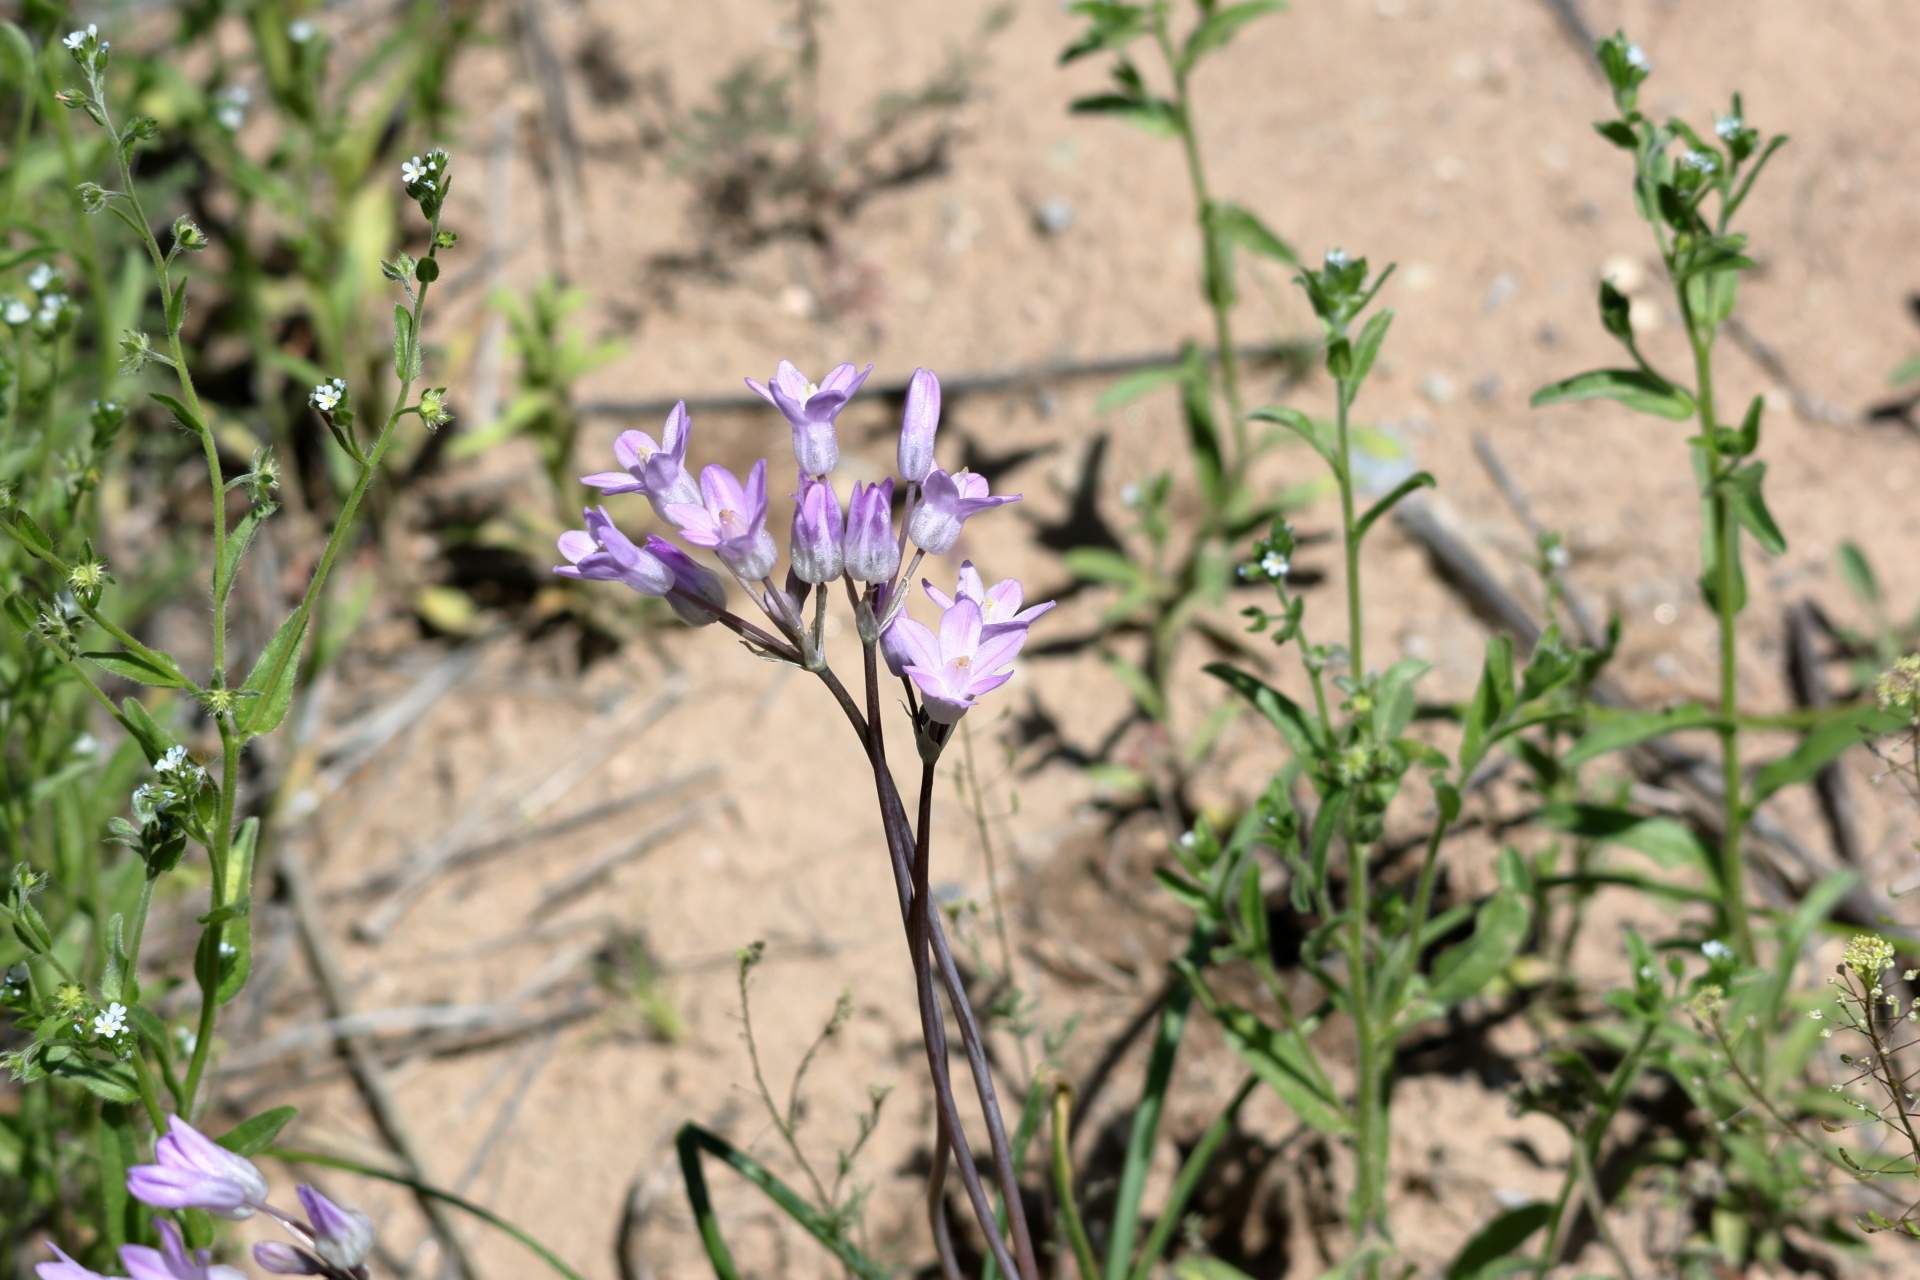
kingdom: Plantae
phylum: Tracheophyta
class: Liliopsida
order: Asparagales
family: Asparagaceae
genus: Dipterostemon
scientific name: Dipterostemon capitatus
